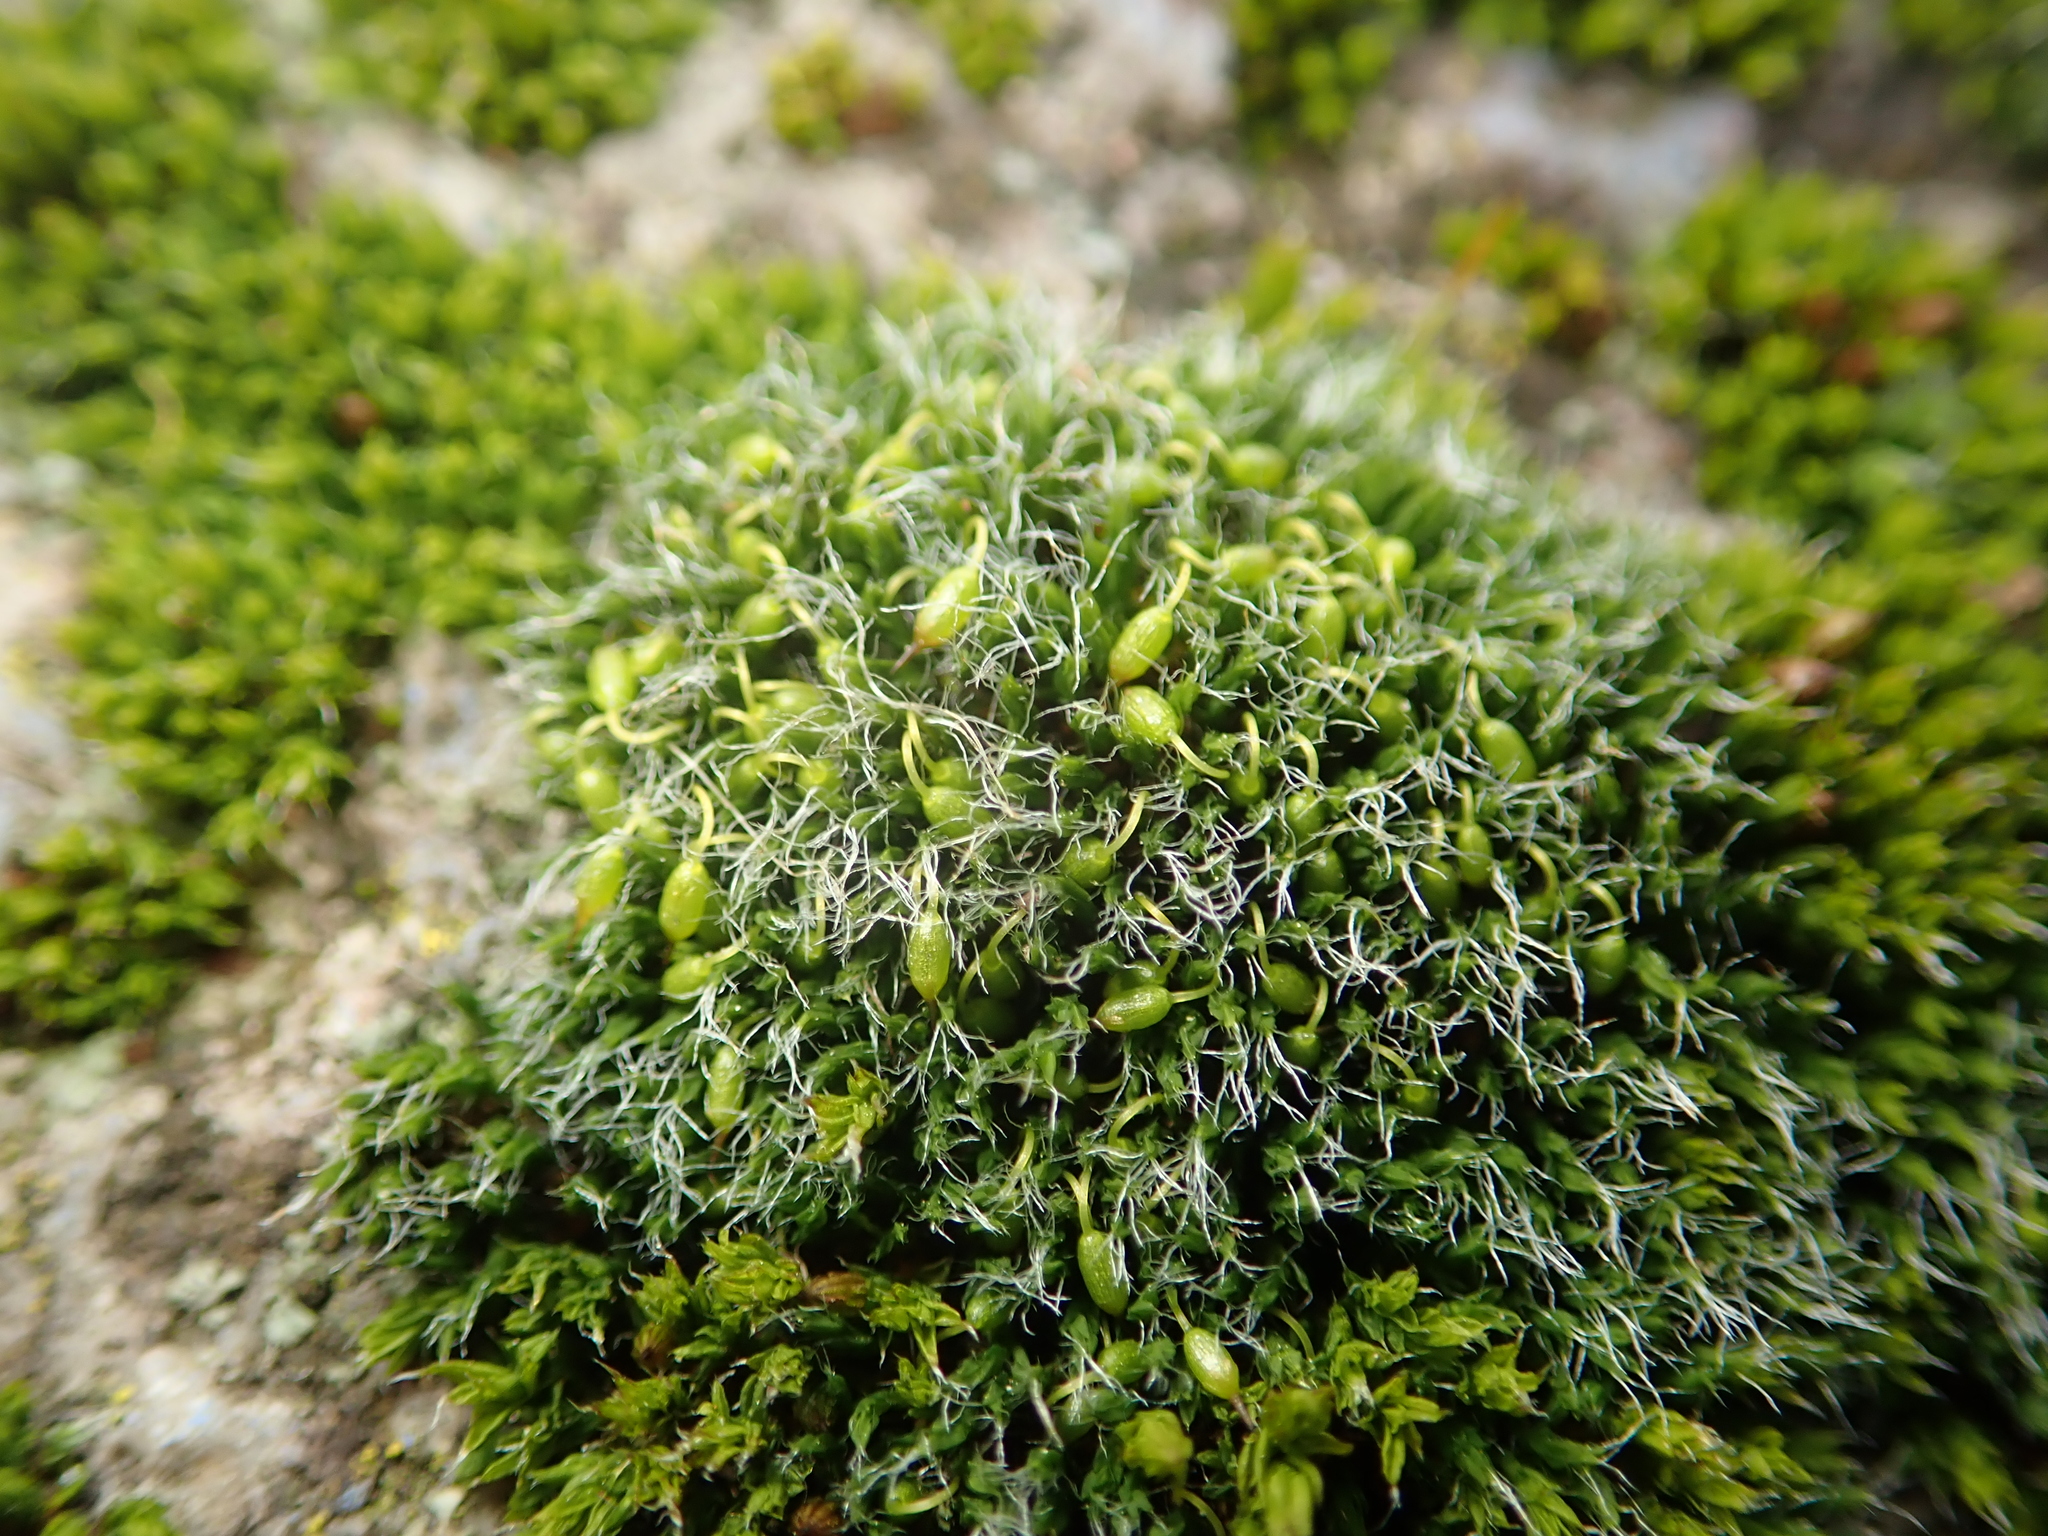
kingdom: Plantae
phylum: Bryophyta
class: Bryopsida
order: Grimmiales
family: Grimmiaceae
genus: Grimmia
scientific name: Grimmia pulvinata
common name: Grey-cushioned grimmia
